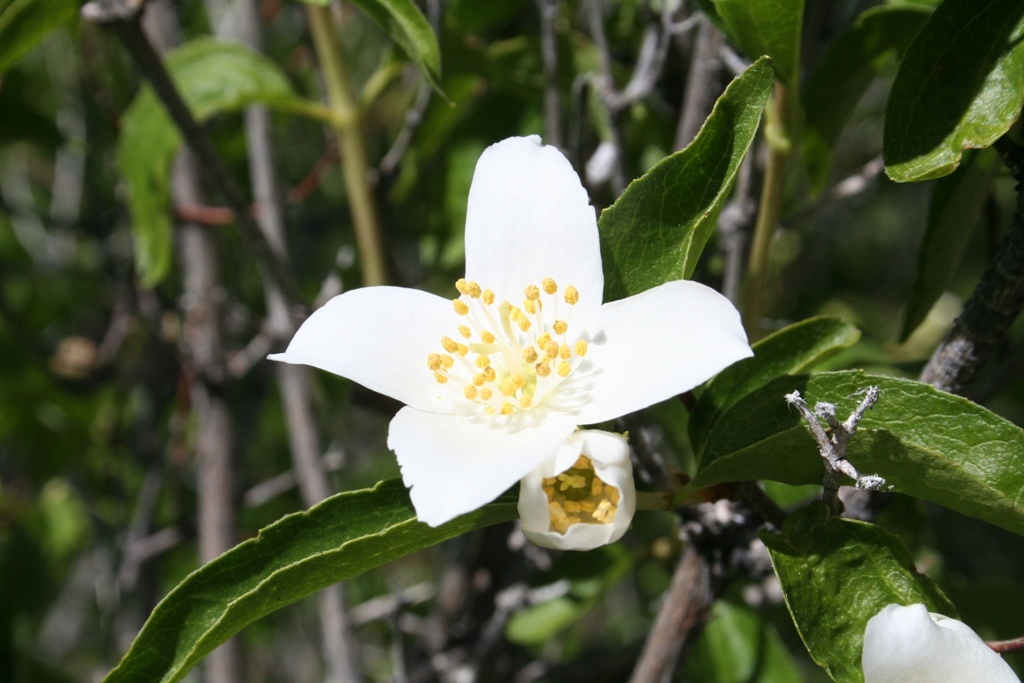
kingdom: Plantae
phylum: Tracheophyta
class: Magnoliopsida
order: Cornales
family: Hydrangeaceae
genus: Philadelphus
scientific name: Philadelphus lewisii
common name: Lewis's mock orange
